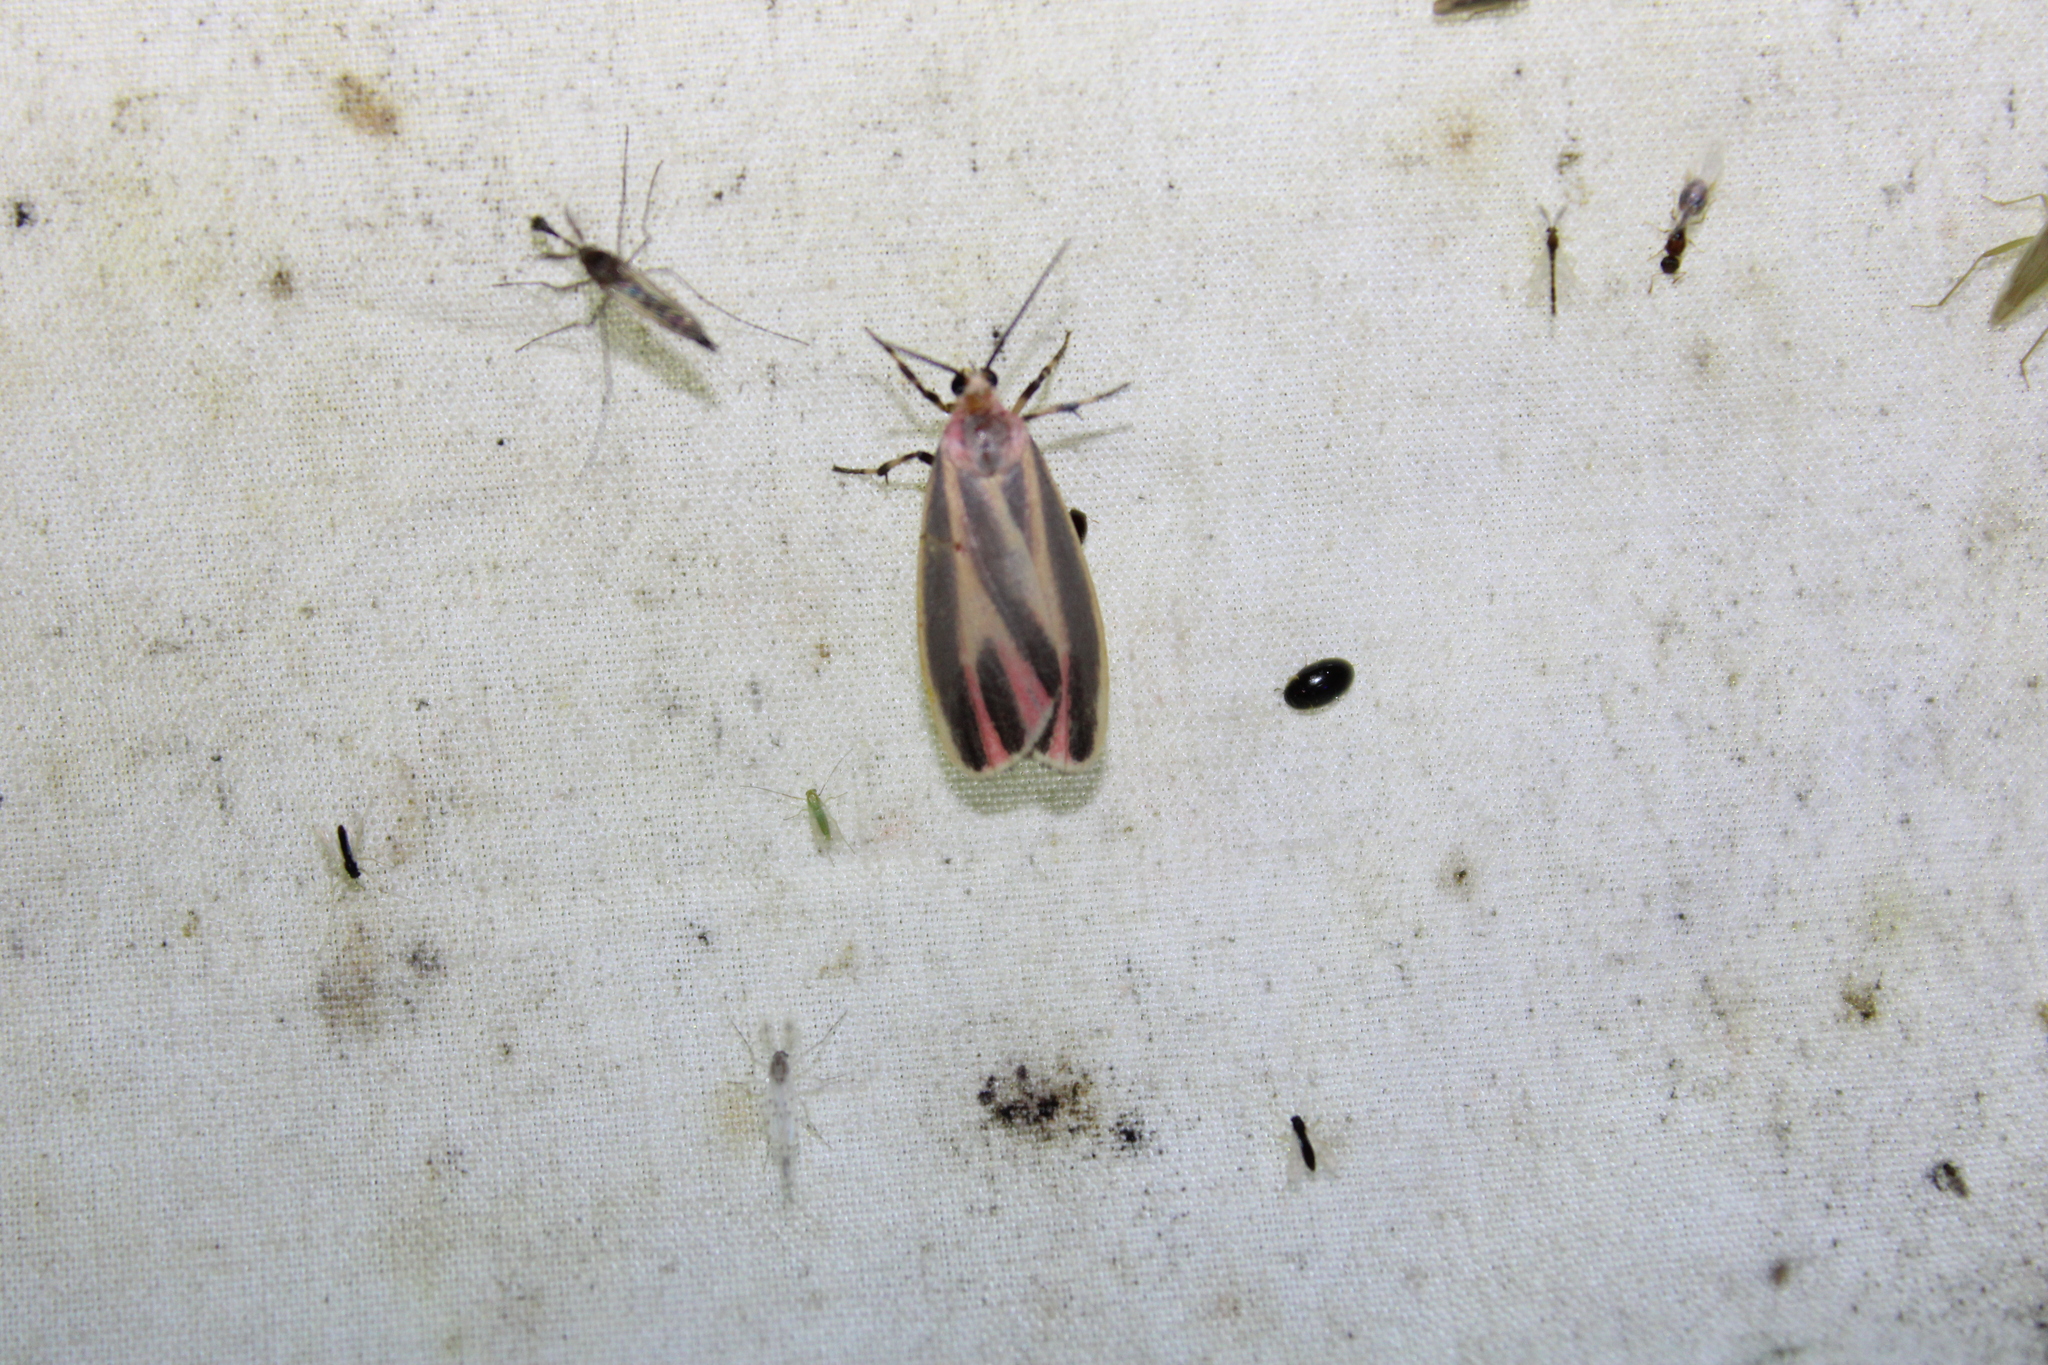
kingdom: Animalia
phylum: Arthropoda
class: Insecta
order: Lepidoptera
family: Erebidae
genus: Hypoprepia
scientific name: Hypoprepia fucosa
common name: Painted lichen moth
